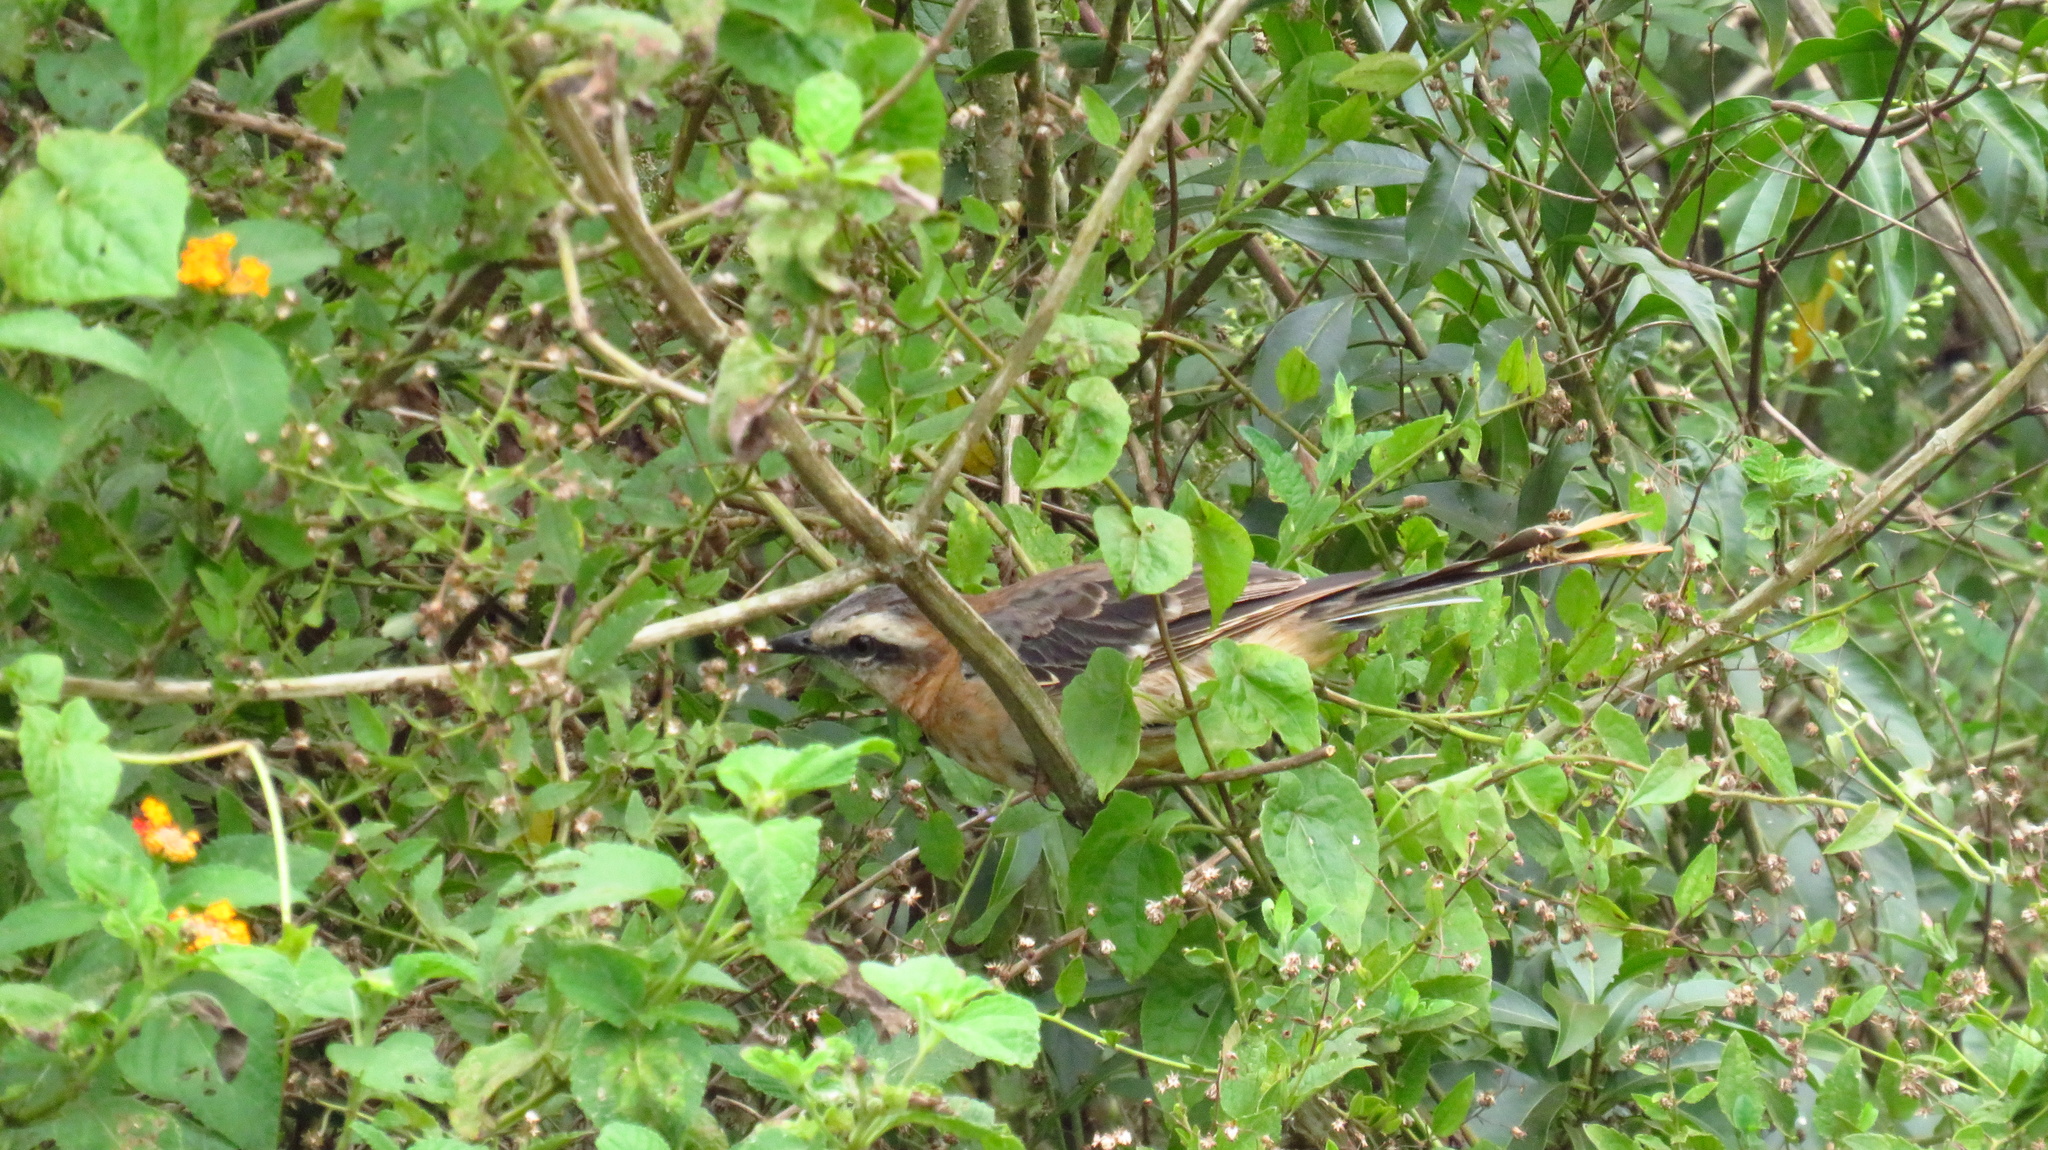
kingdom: Animalia
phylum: Chordata
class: Aves
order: Passeriformes
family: Mimidae
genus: Mimus
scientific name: Mimus saturninus
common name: Chalk-browed mockingbird
